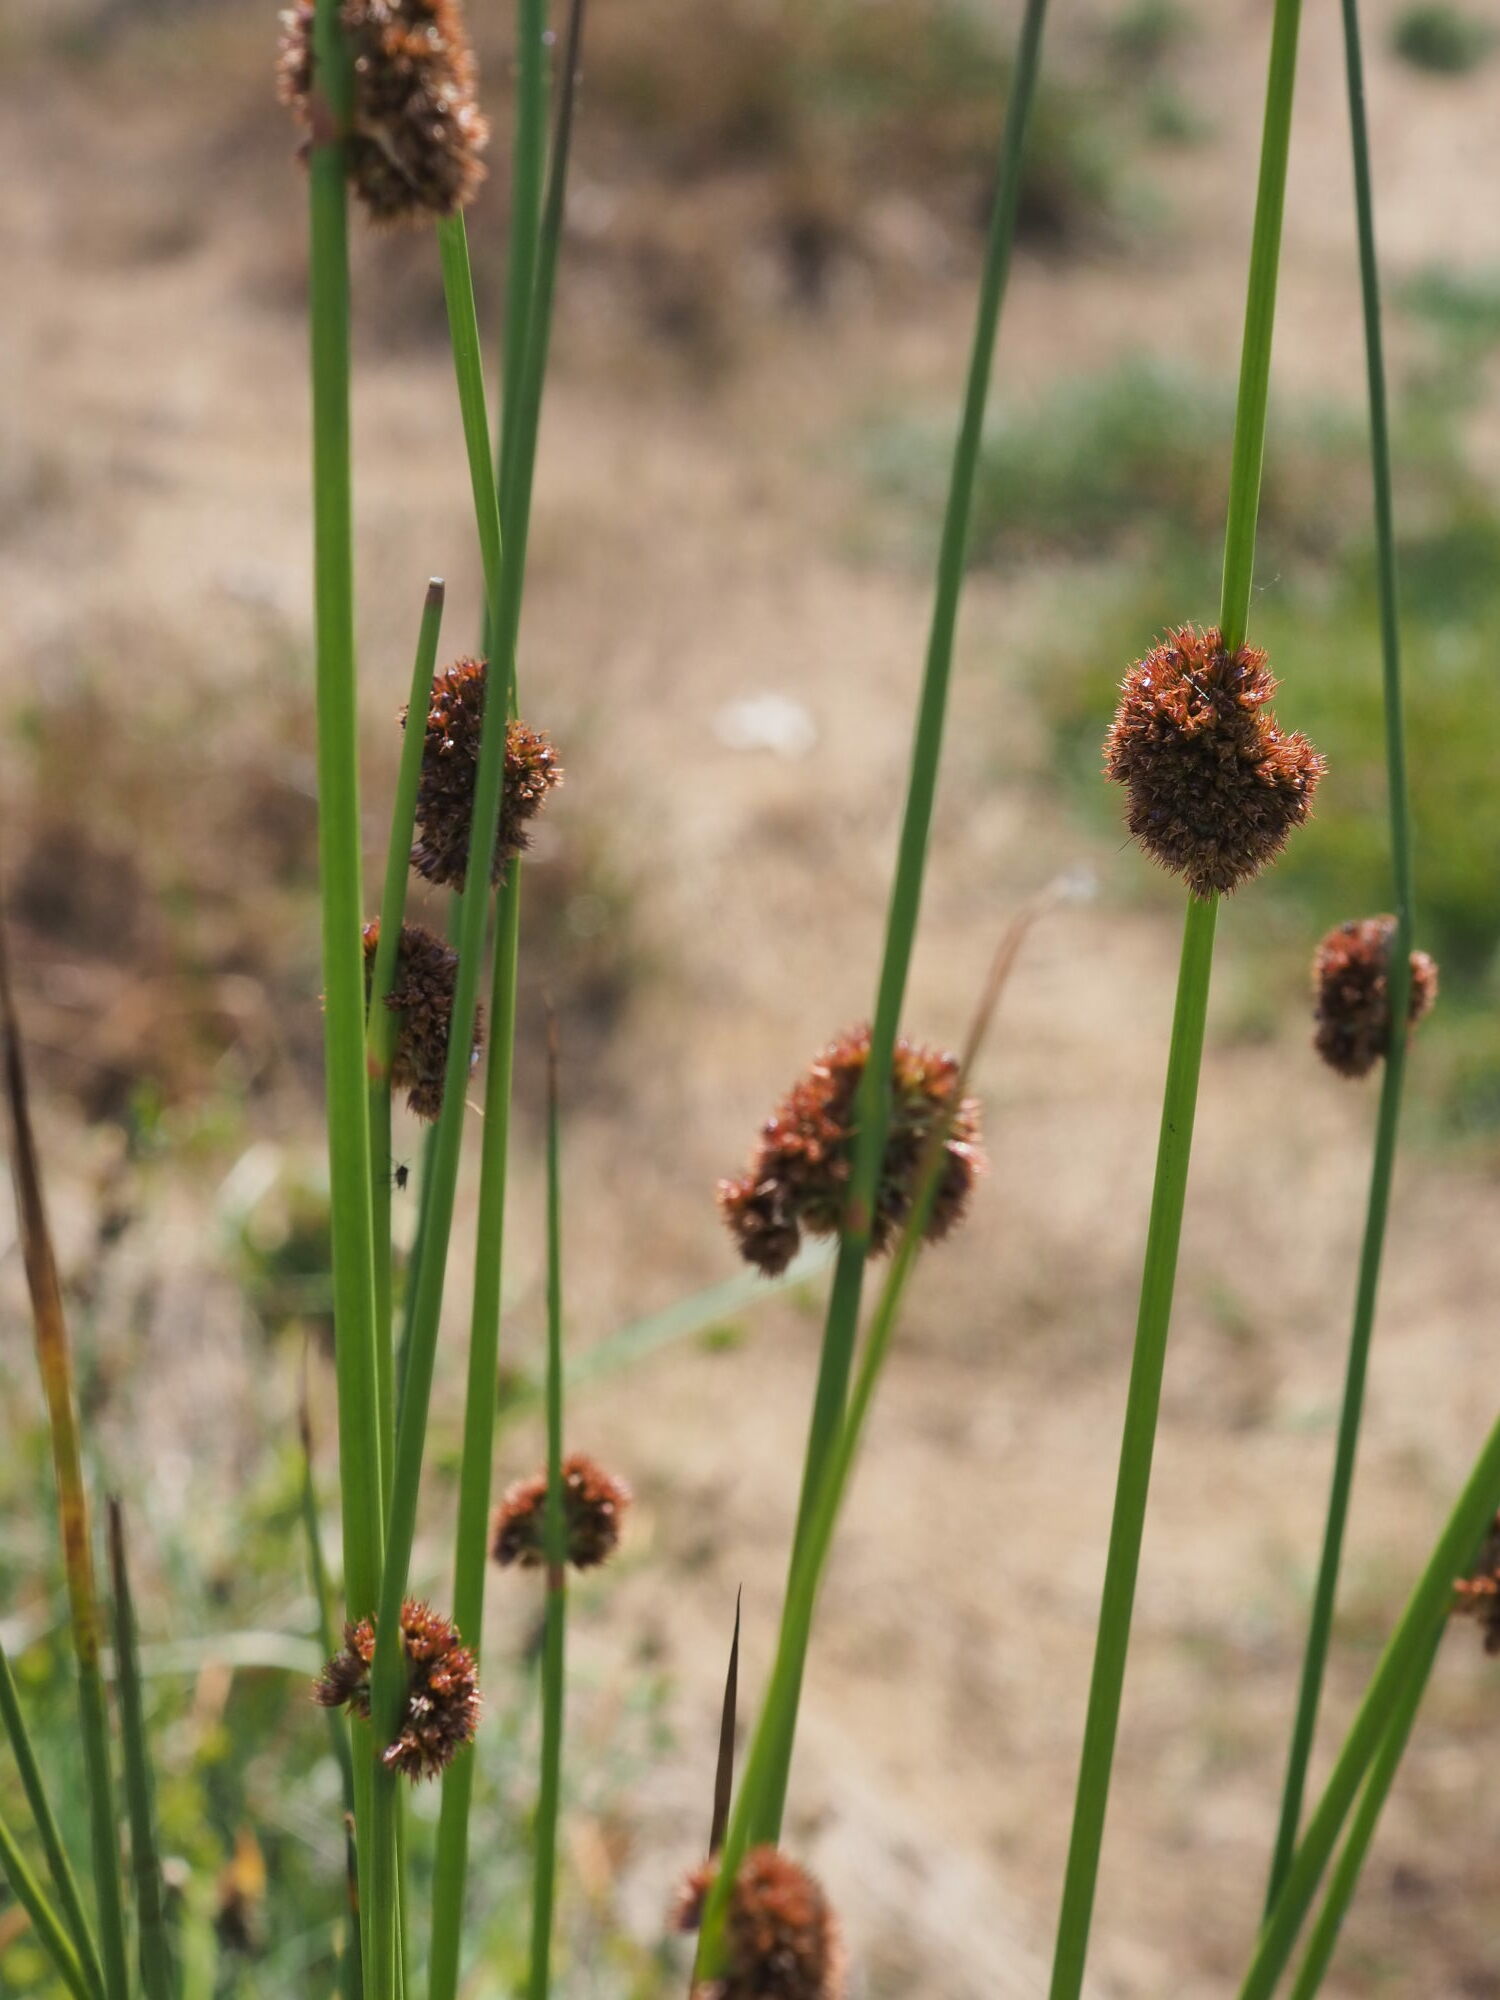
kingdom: Plantae
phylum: Tracheophyta
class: Liliopsida
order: Poales
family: Juncaceae
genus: Juncus
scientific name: Juncus conglomeratus
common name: Compact rush
